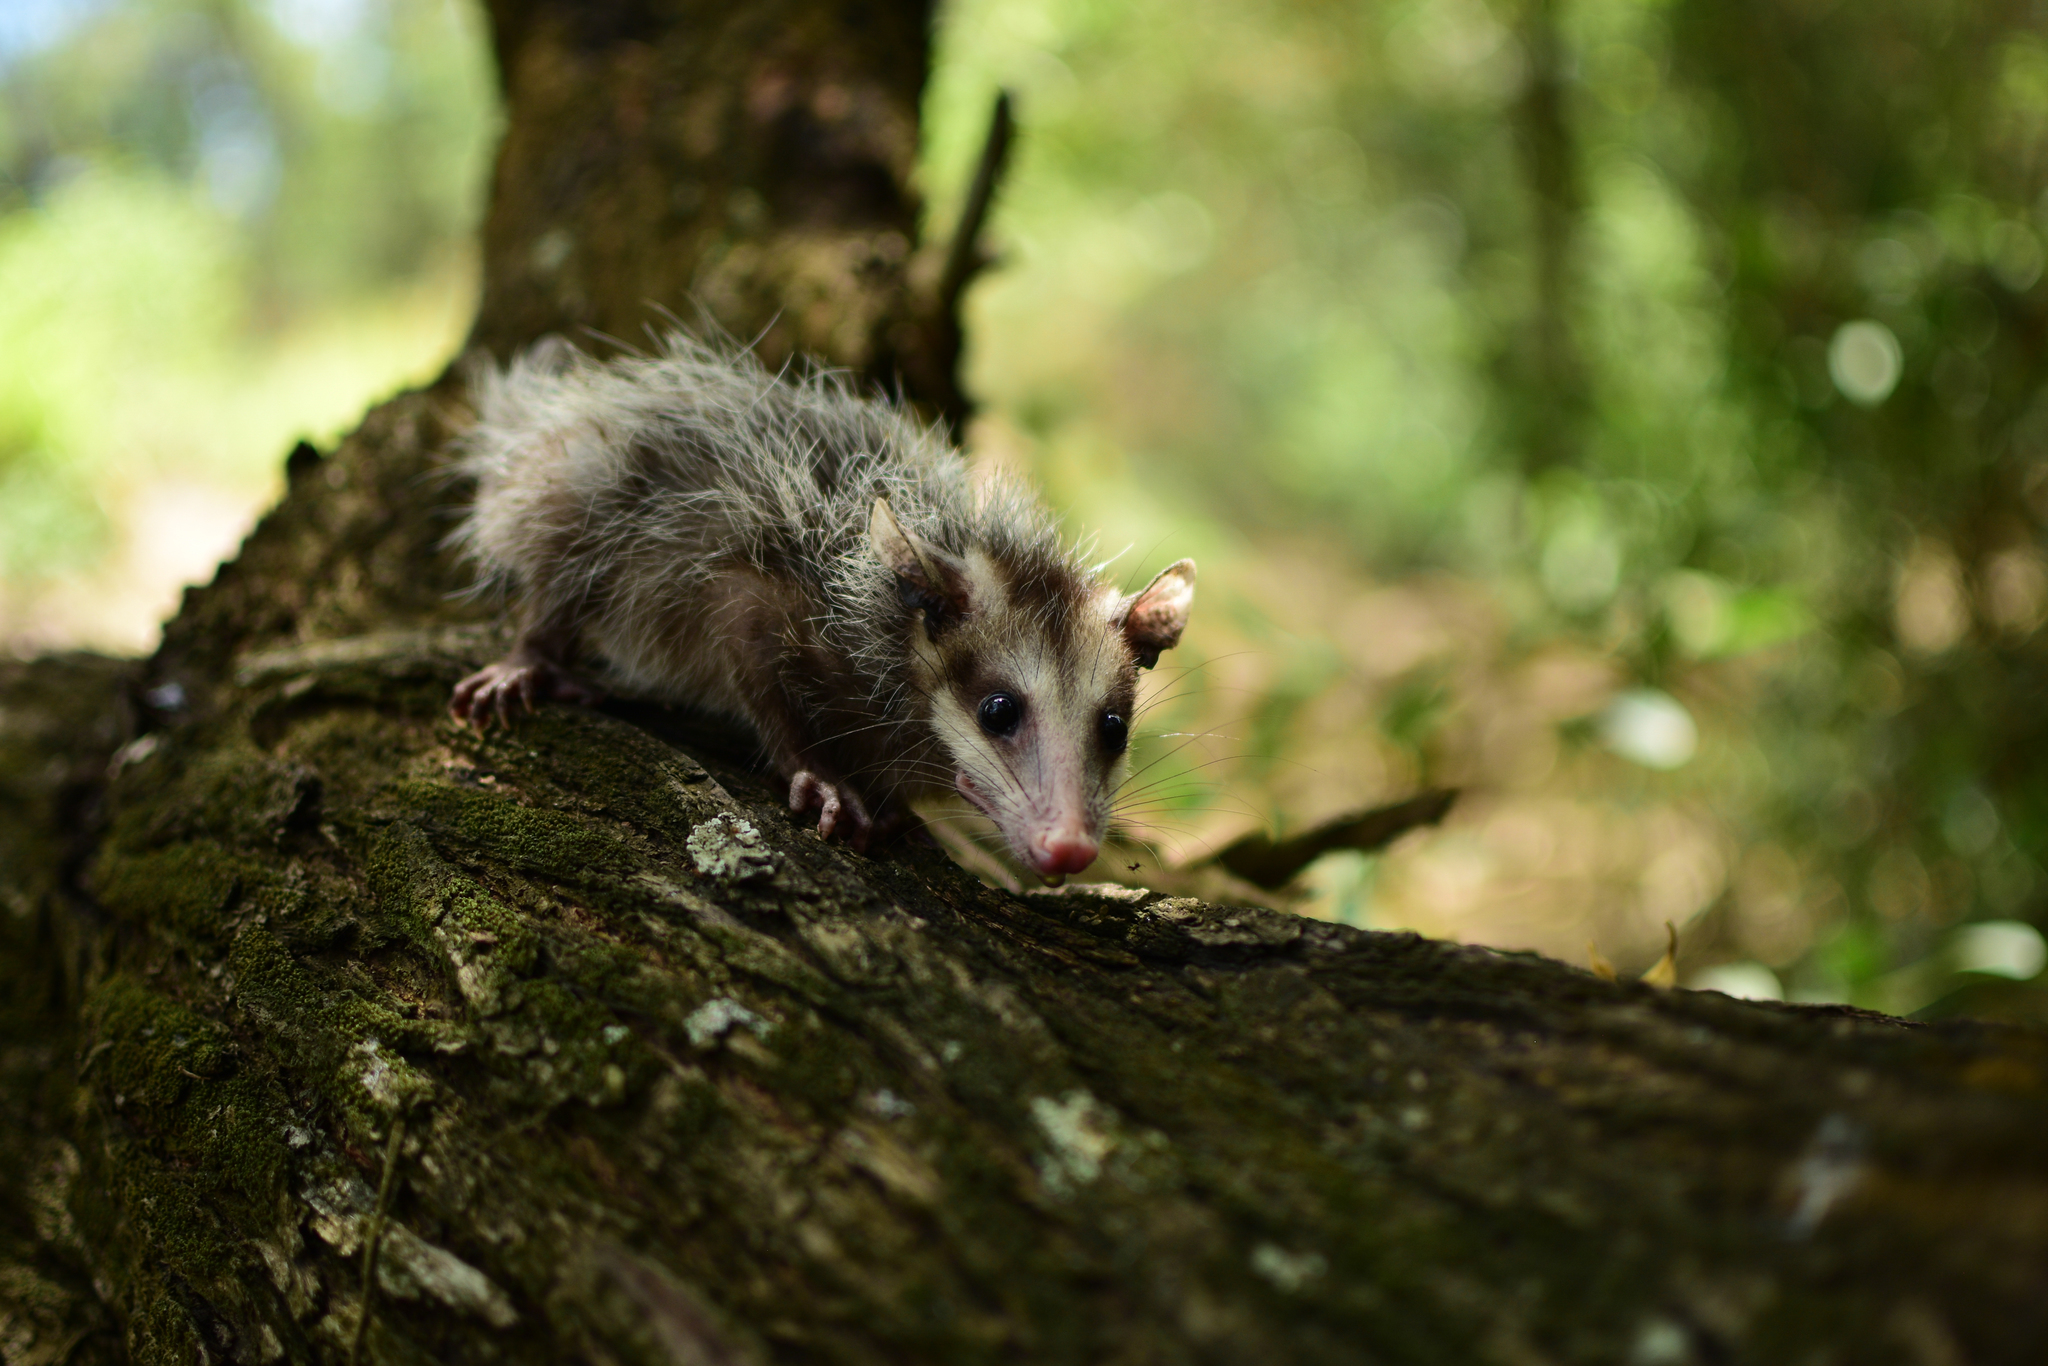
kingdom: Animalia
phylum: Chordata
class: Mammalia
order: Didelphimorphia
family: Didelphidae
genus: Didelphis
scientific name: Didelphis
